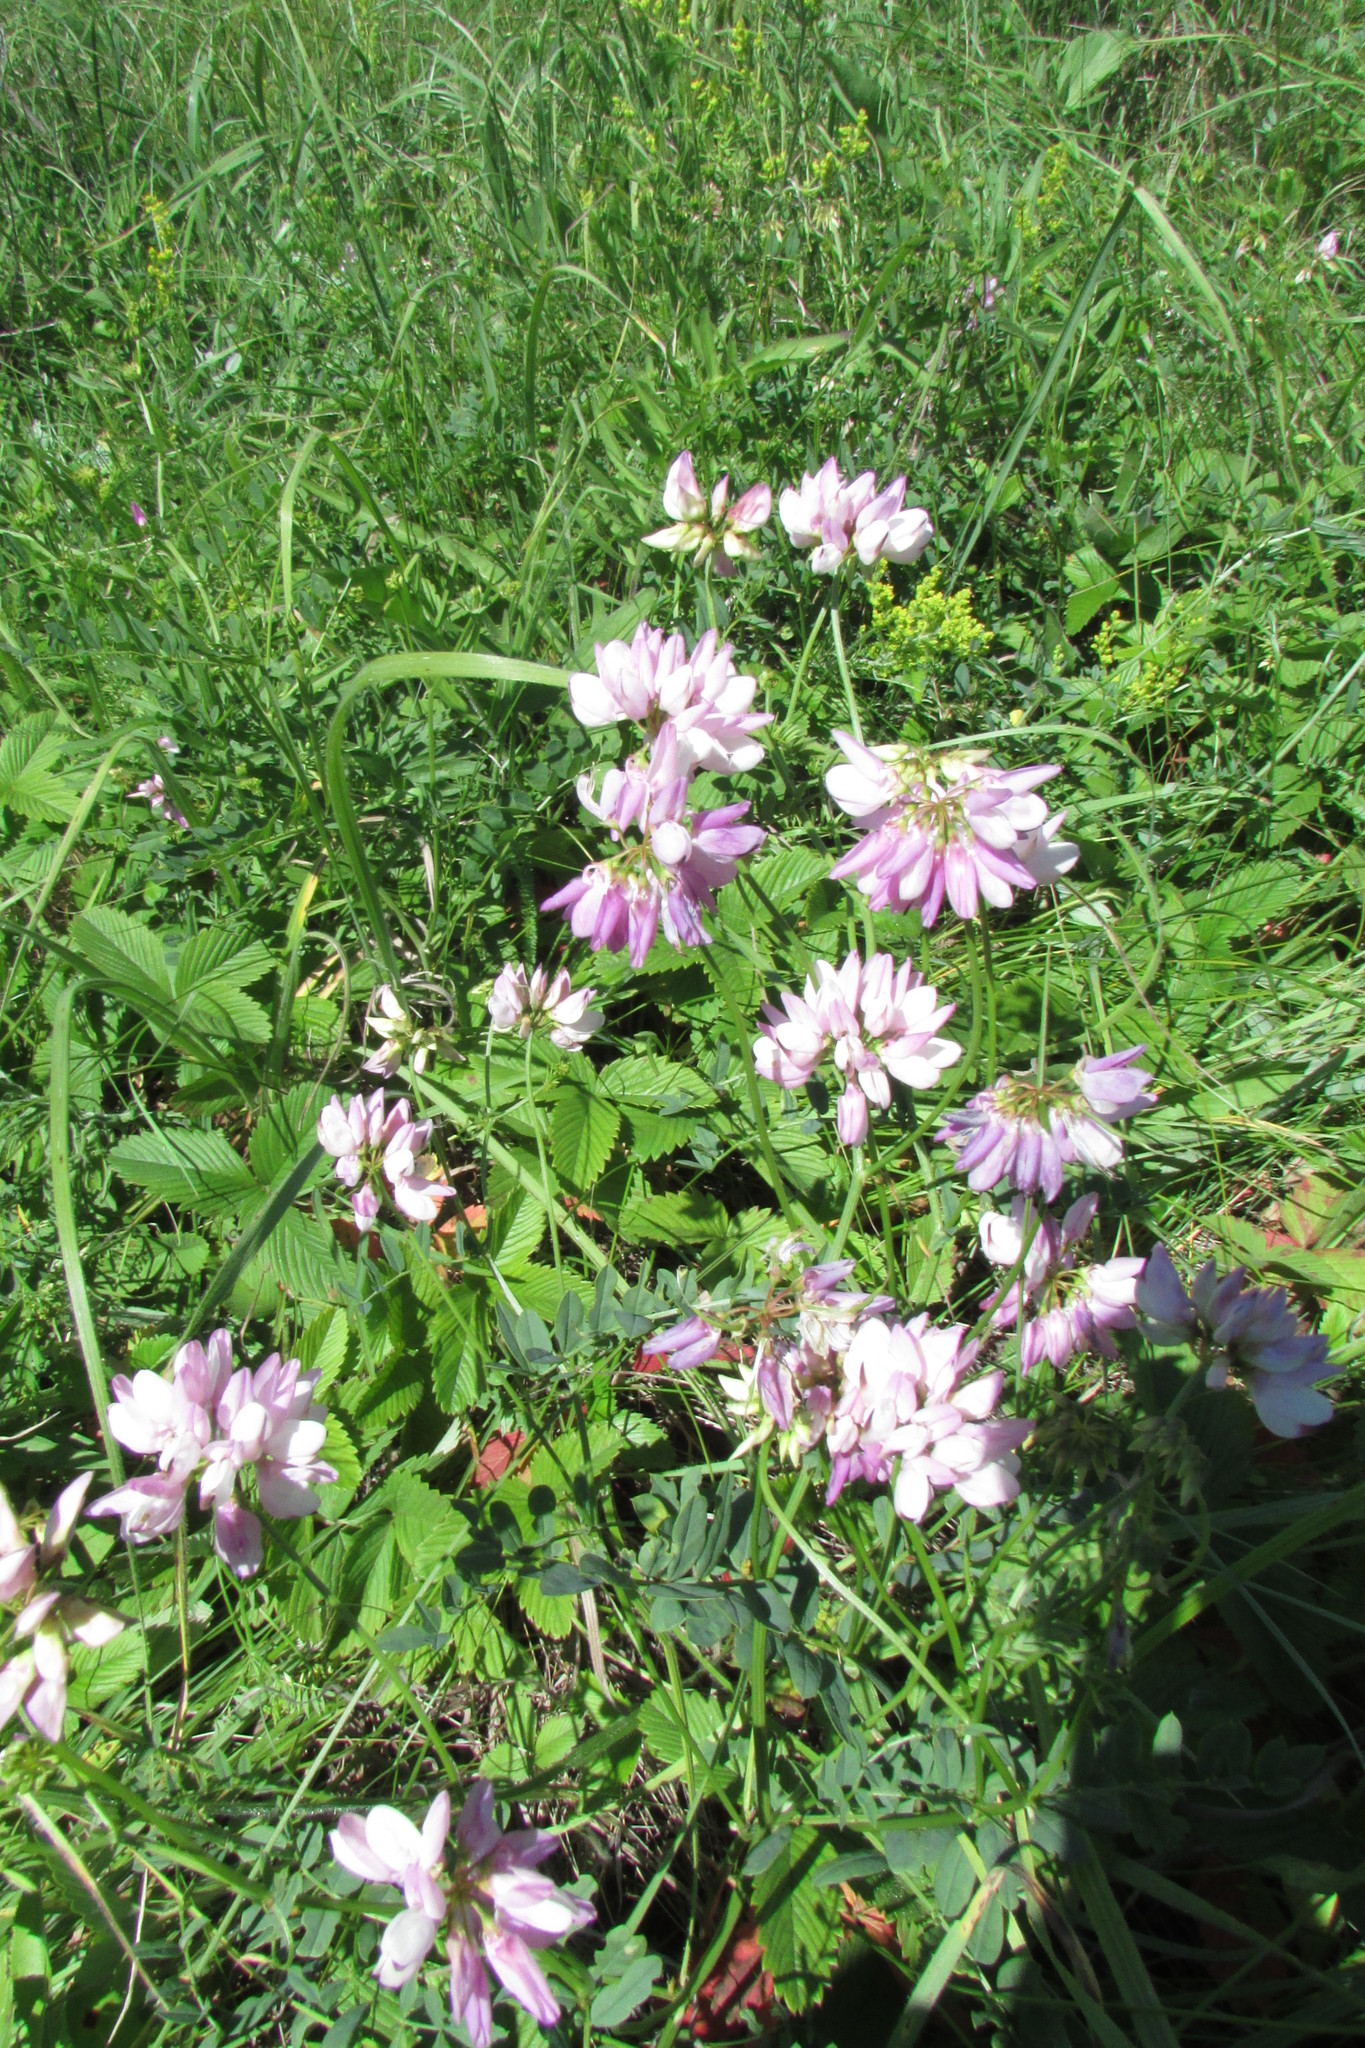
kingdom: Plantae
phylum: Tracheophyta
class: Magnoliopsida
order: Fabales
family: Fabaceae
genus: Coronilla
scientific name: Coronilla varia
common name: Crownvetch
